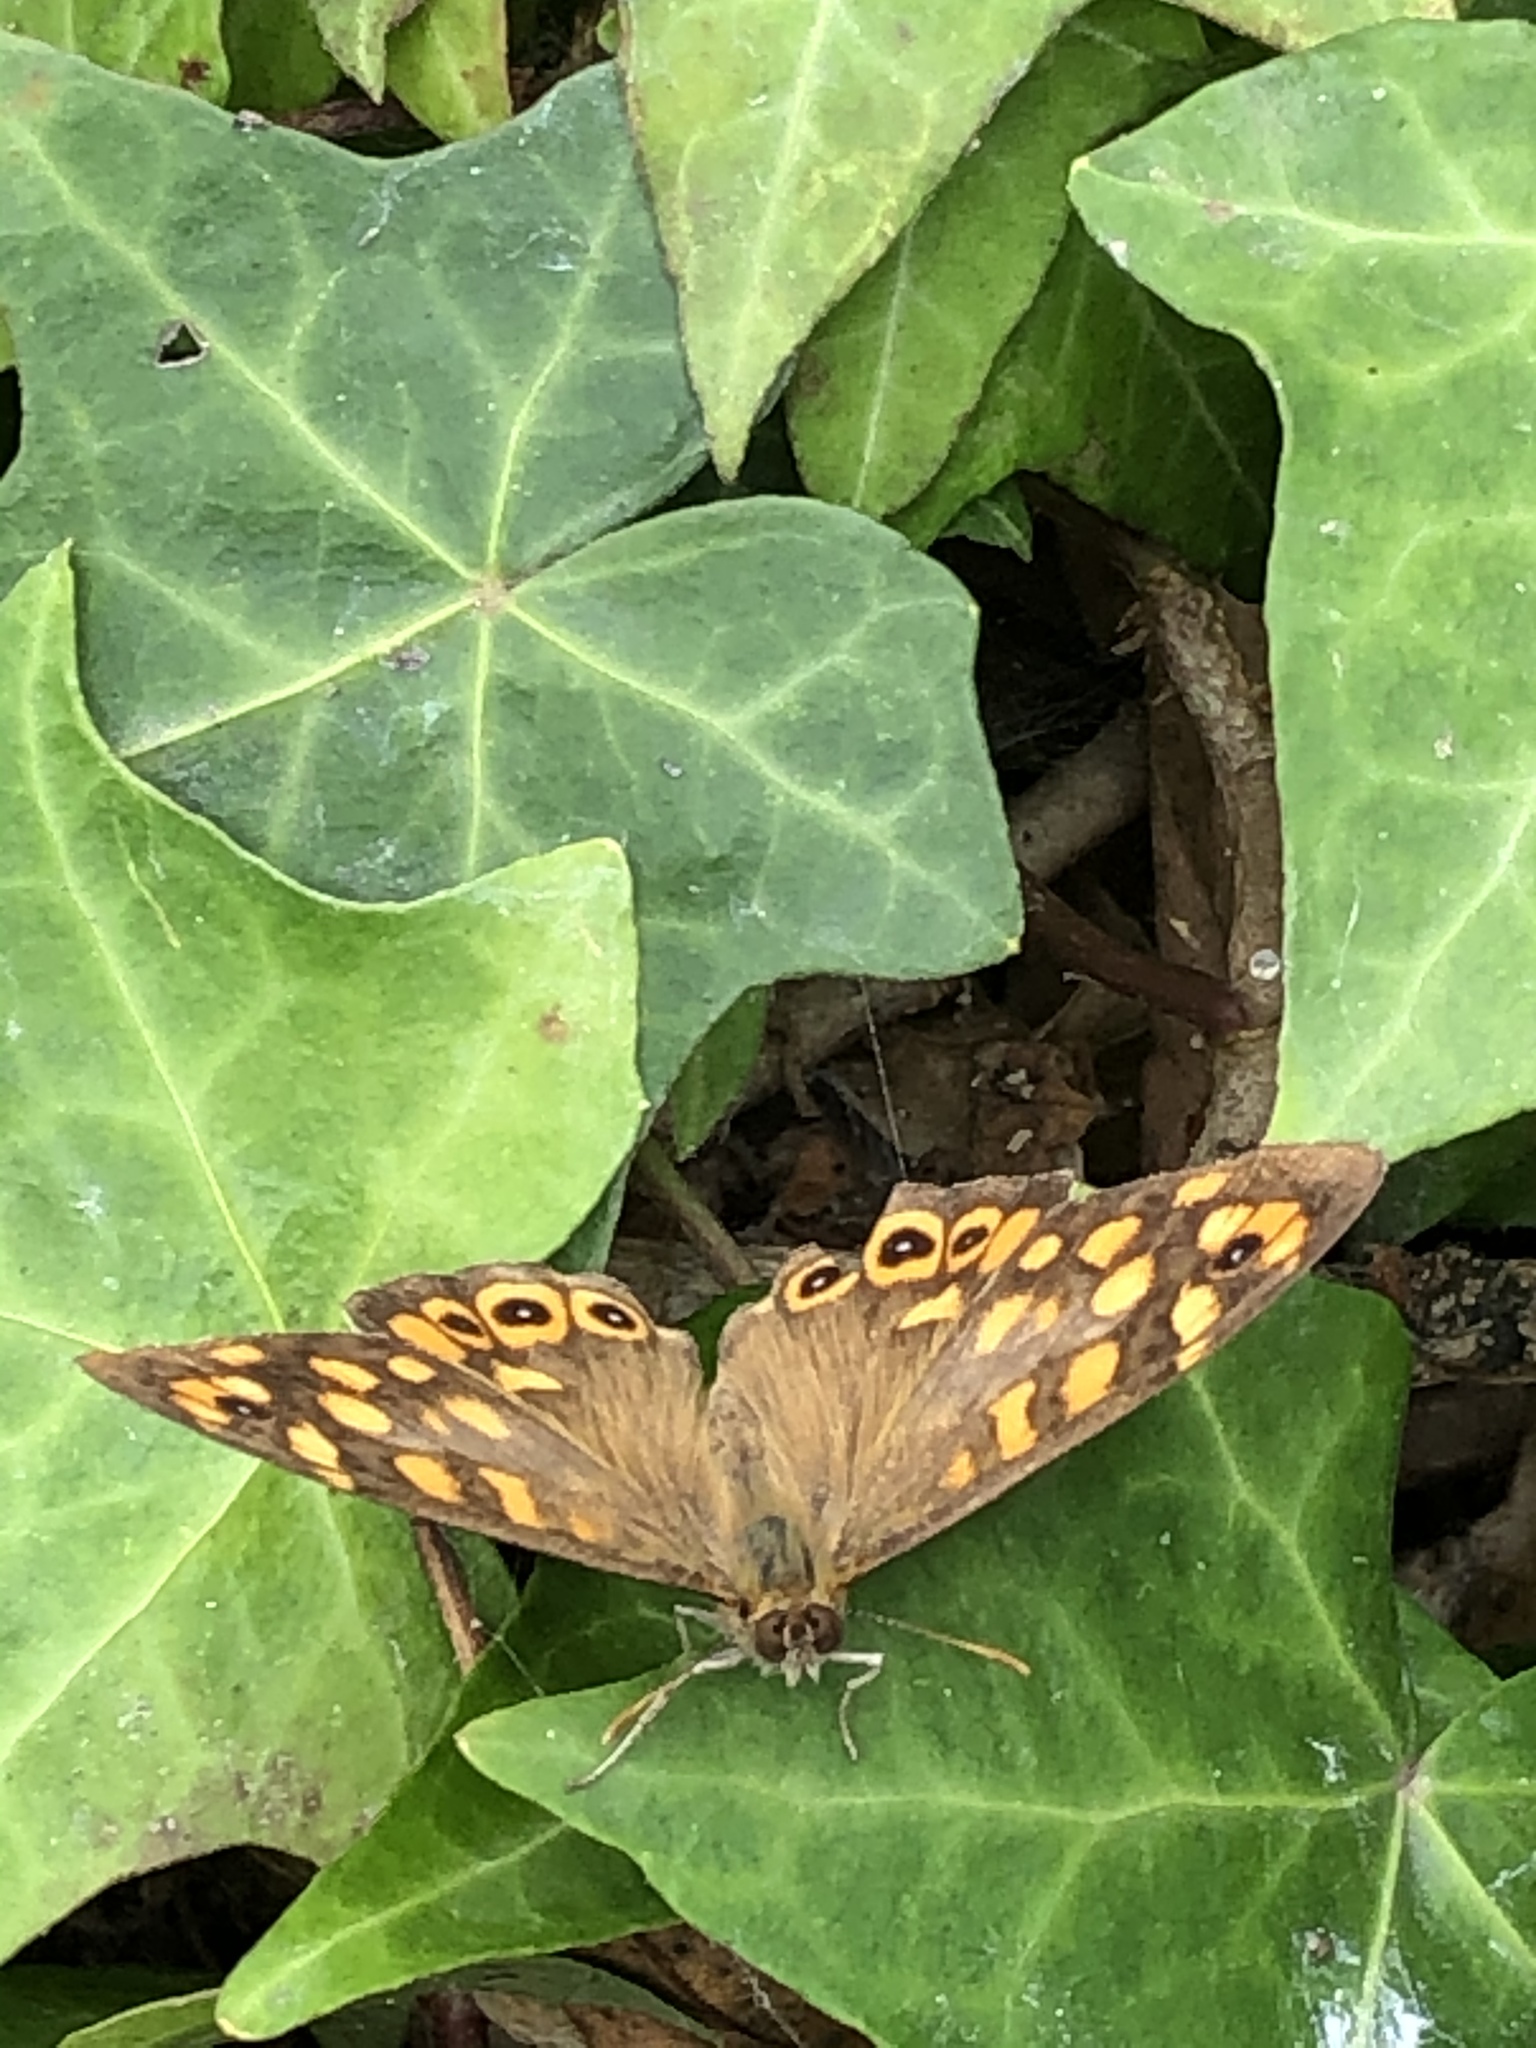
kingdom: Animalia
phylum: Arthropoda
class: Insecta
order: Lepidoptera
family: Nymphalidae
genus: Pararge
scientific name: Pararge aegeria
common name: Speckled wood
